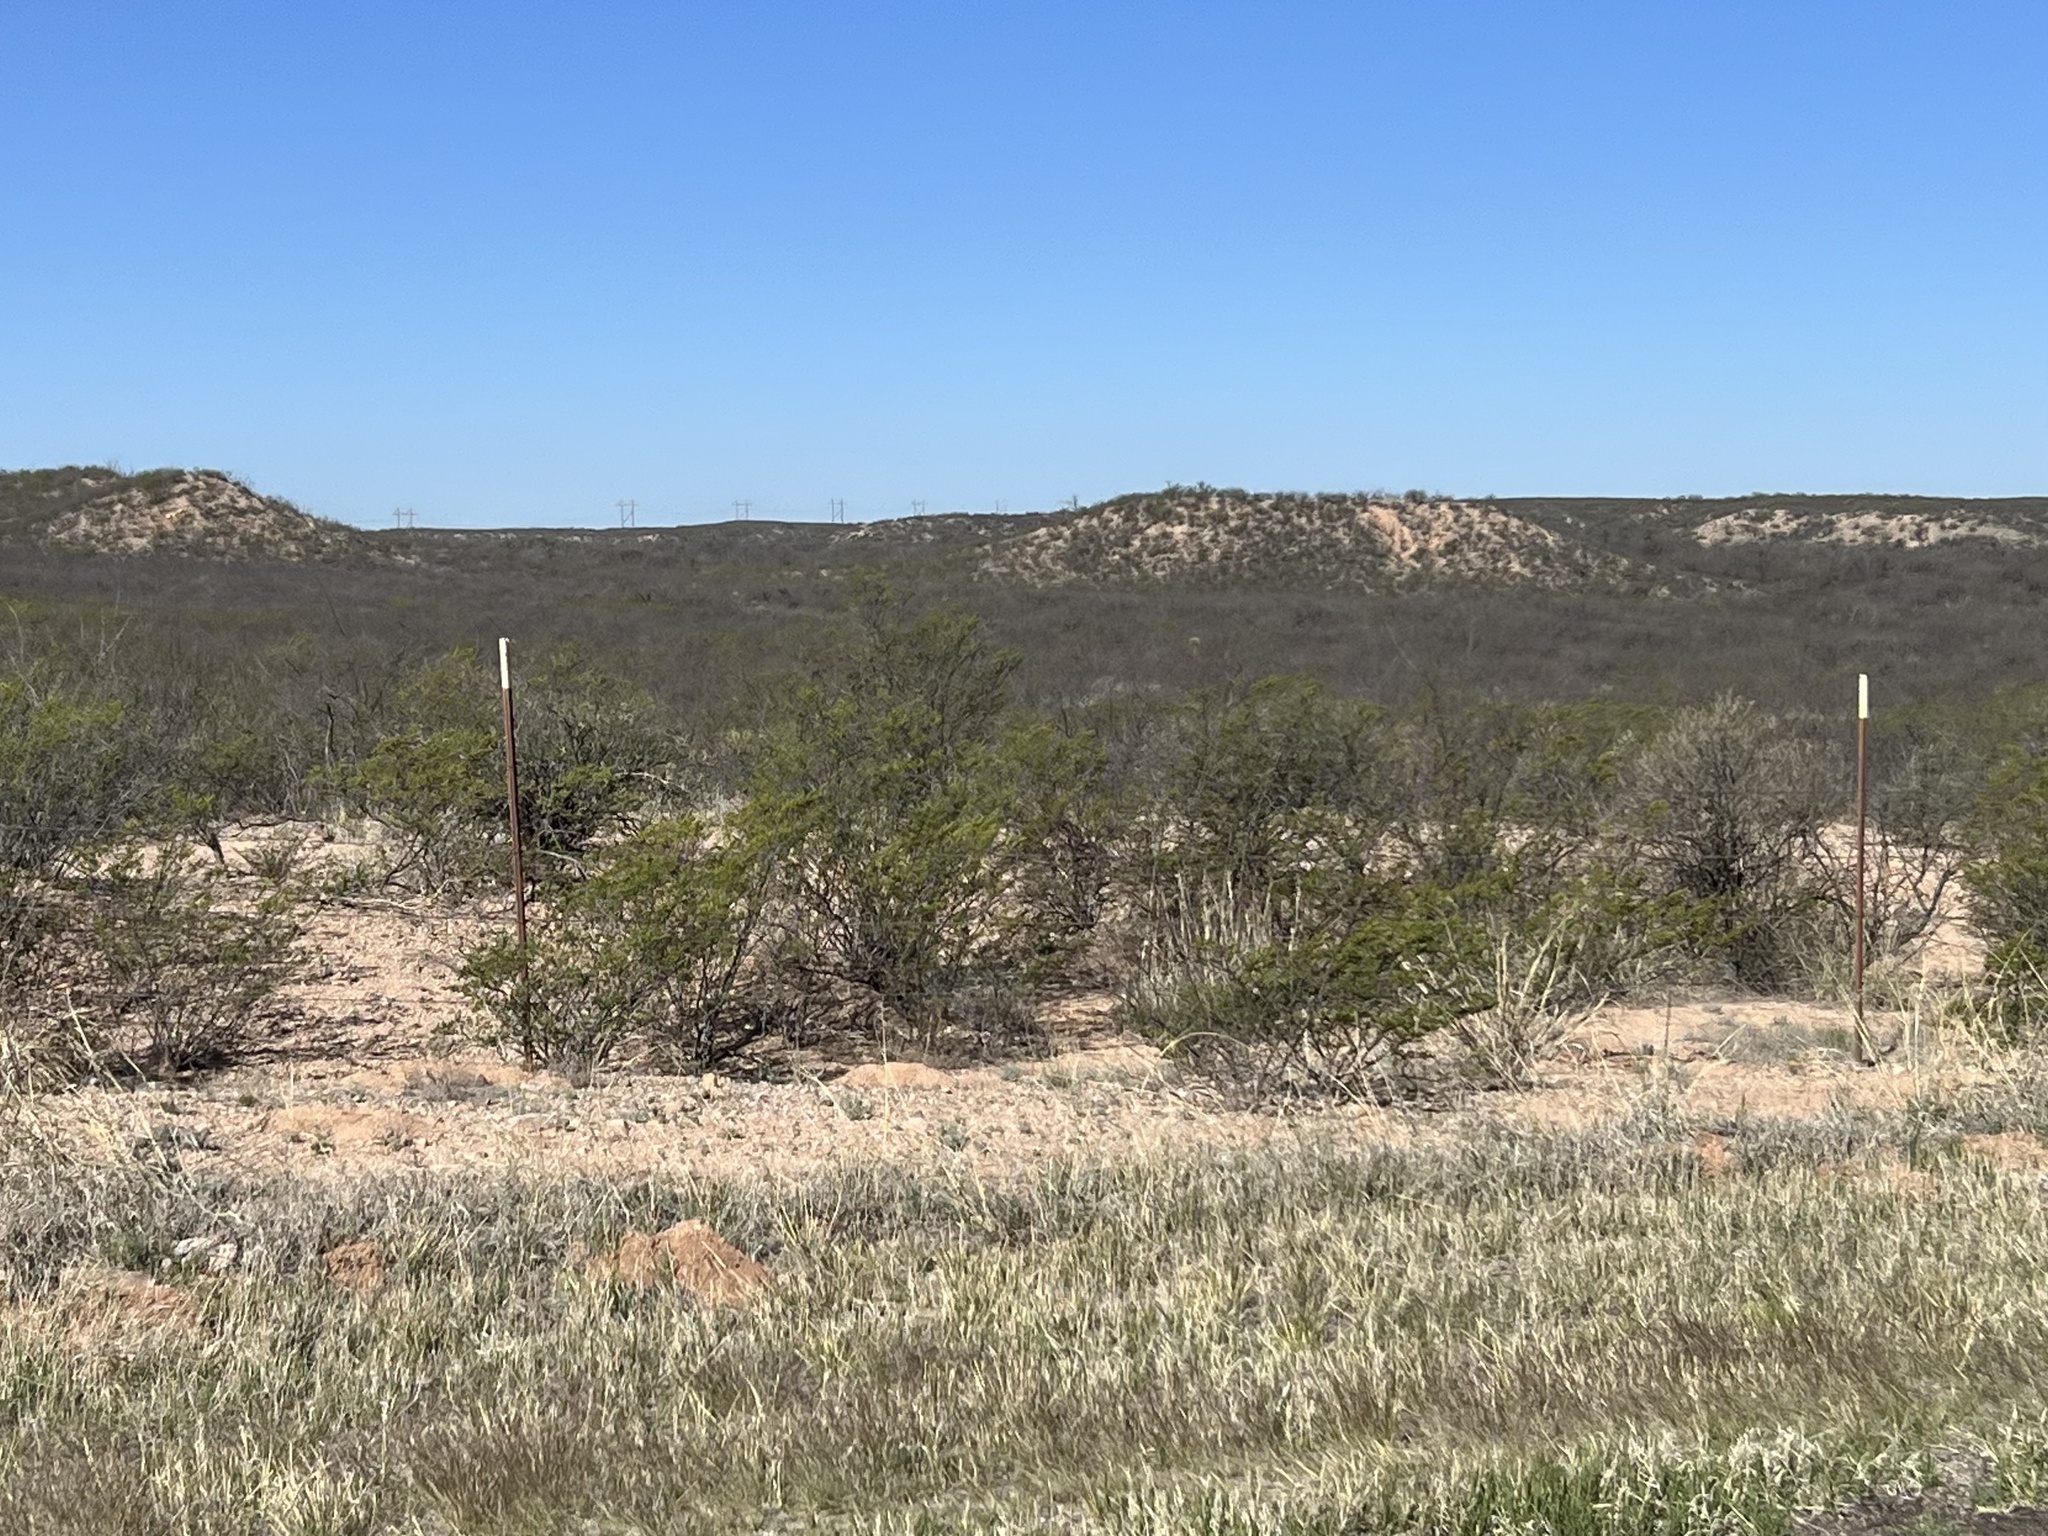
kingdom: Plantae
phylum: Tracheophyta
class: Magnoliopsida
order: Zygophyllales
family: Zygophyllaceae
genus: Larrea
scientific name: Larrea tridentata
